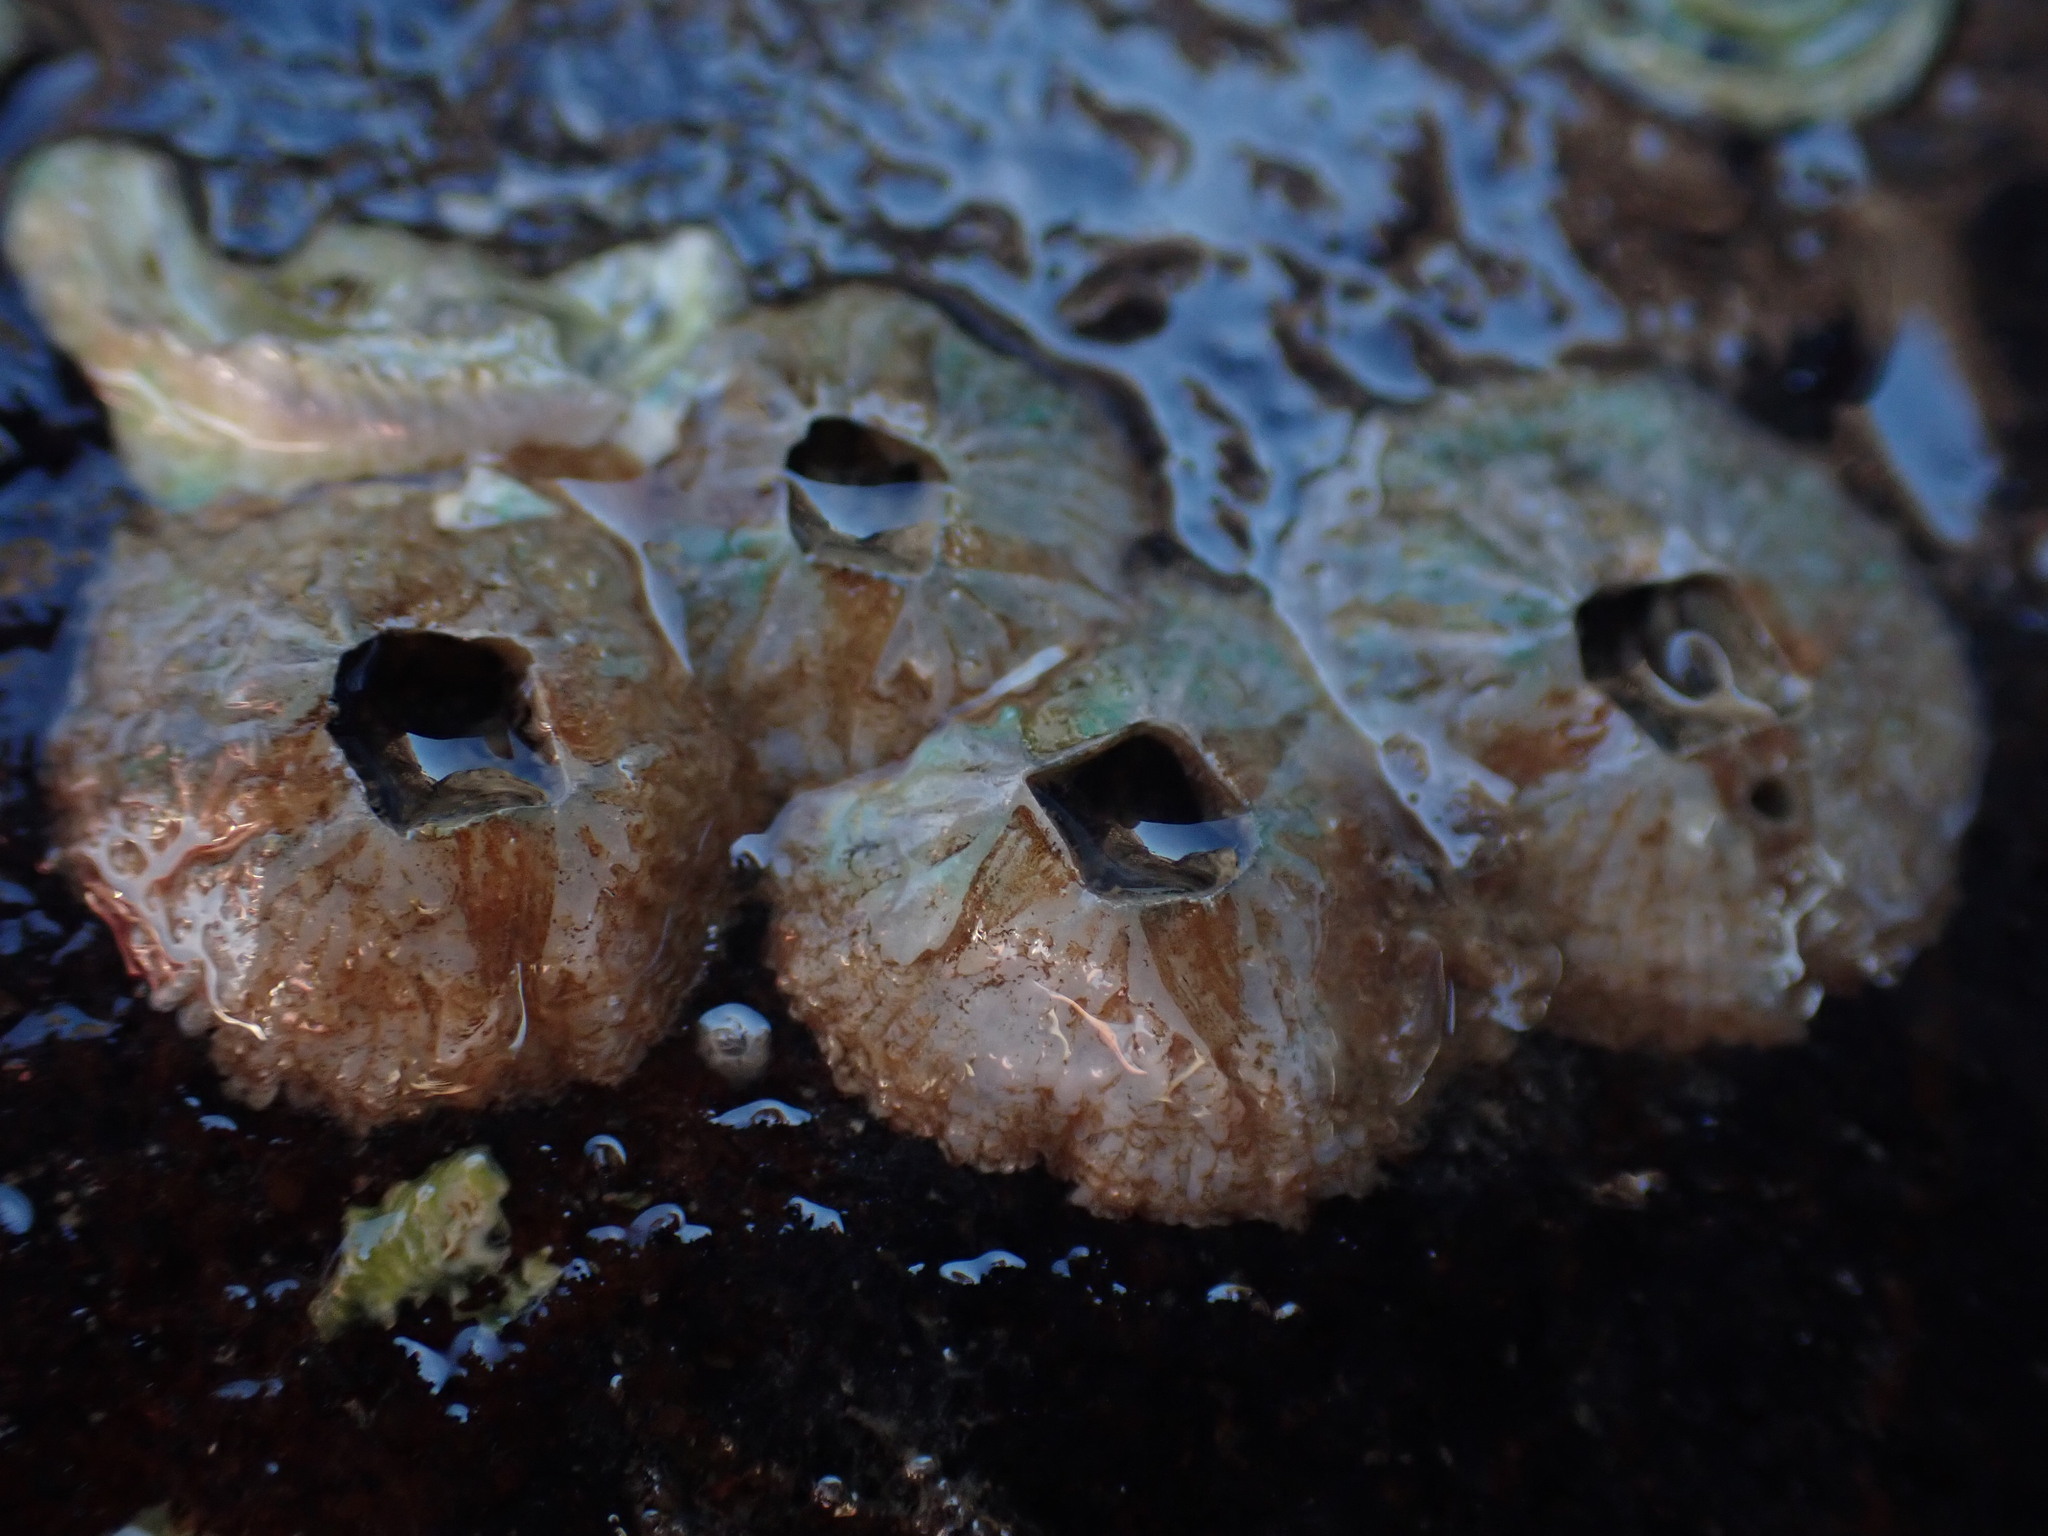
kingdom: Animalia
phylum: Arthropoda
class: Maxillopoda
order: Sessilia
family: Tetraclitidae
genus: Tetraclitella
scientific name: Tetraclitella depressa
